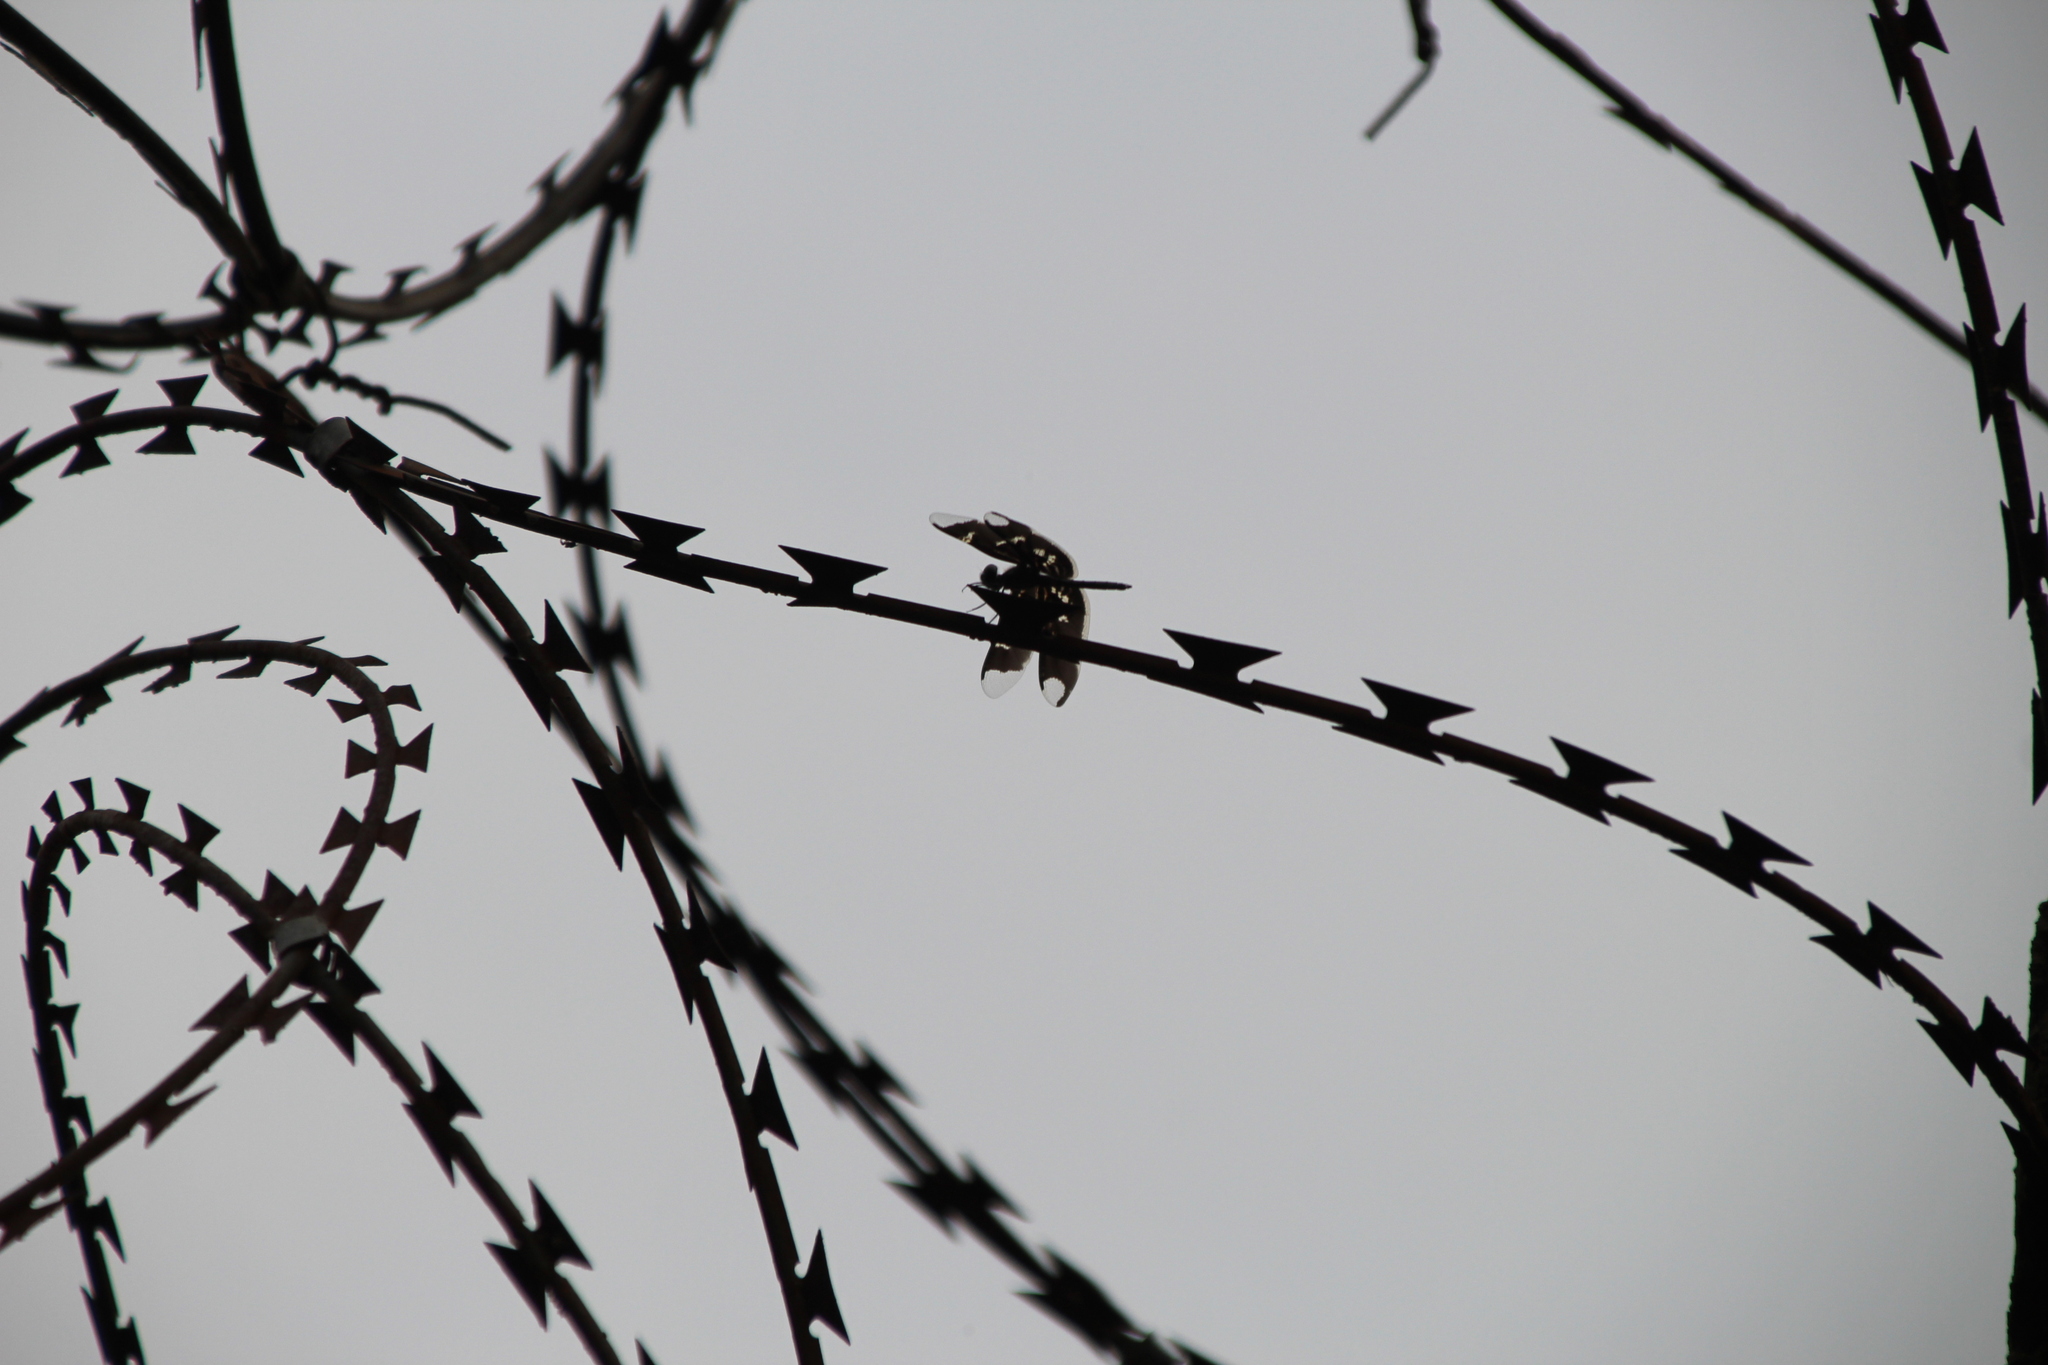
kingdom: Animalia
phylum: Arthropoda
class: Insecta
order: Odonata
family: Libellulidae
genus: Rhyothemis
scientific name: Rhyothemis fenestrina
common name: Skylight flutterer
